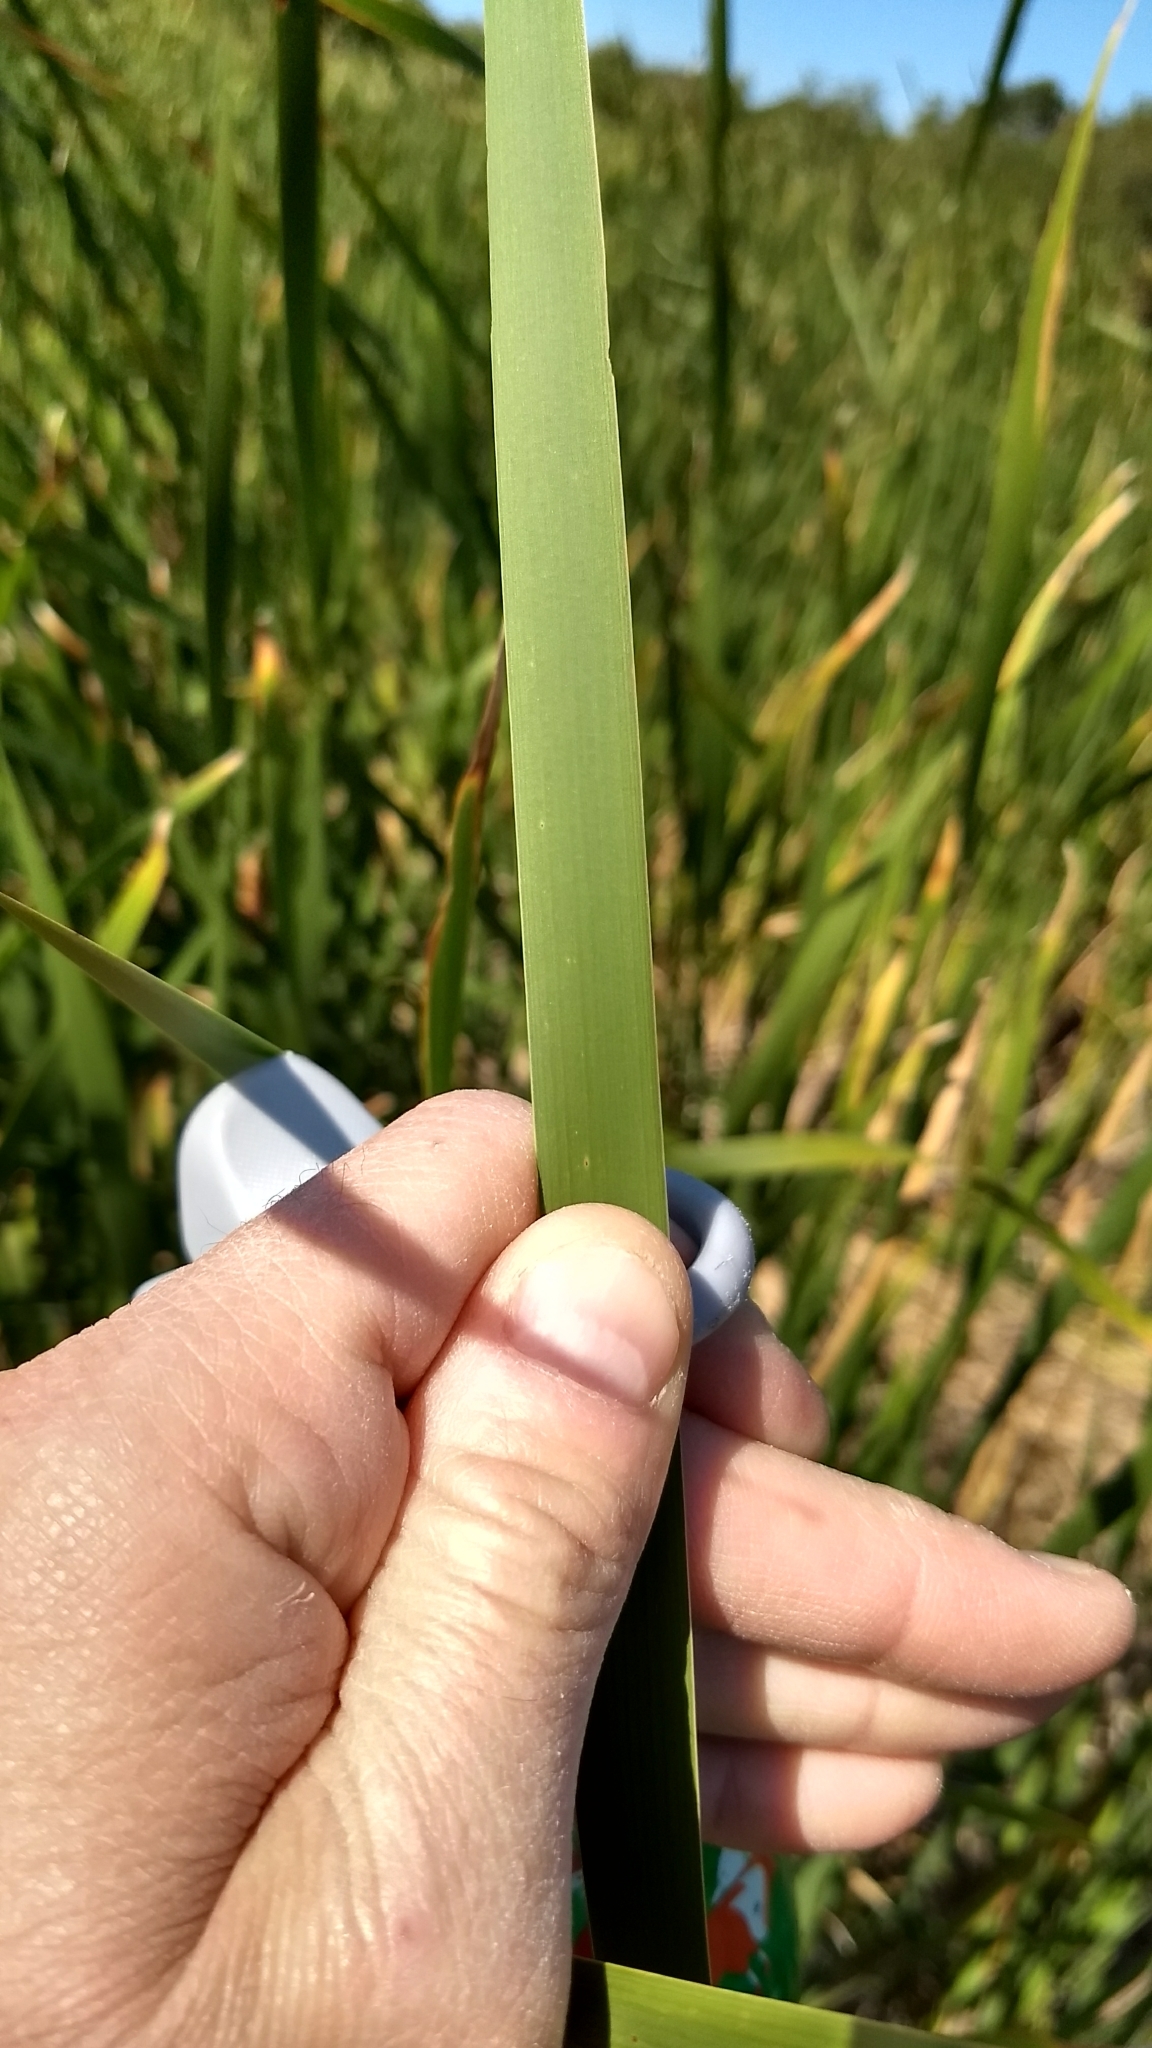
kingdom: Plantae
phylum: Tracheophyta
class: Liliopsida
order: Poales
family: Typhaceae
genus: Typha
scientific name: Typha latifolia
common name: Broadleaf cattail
